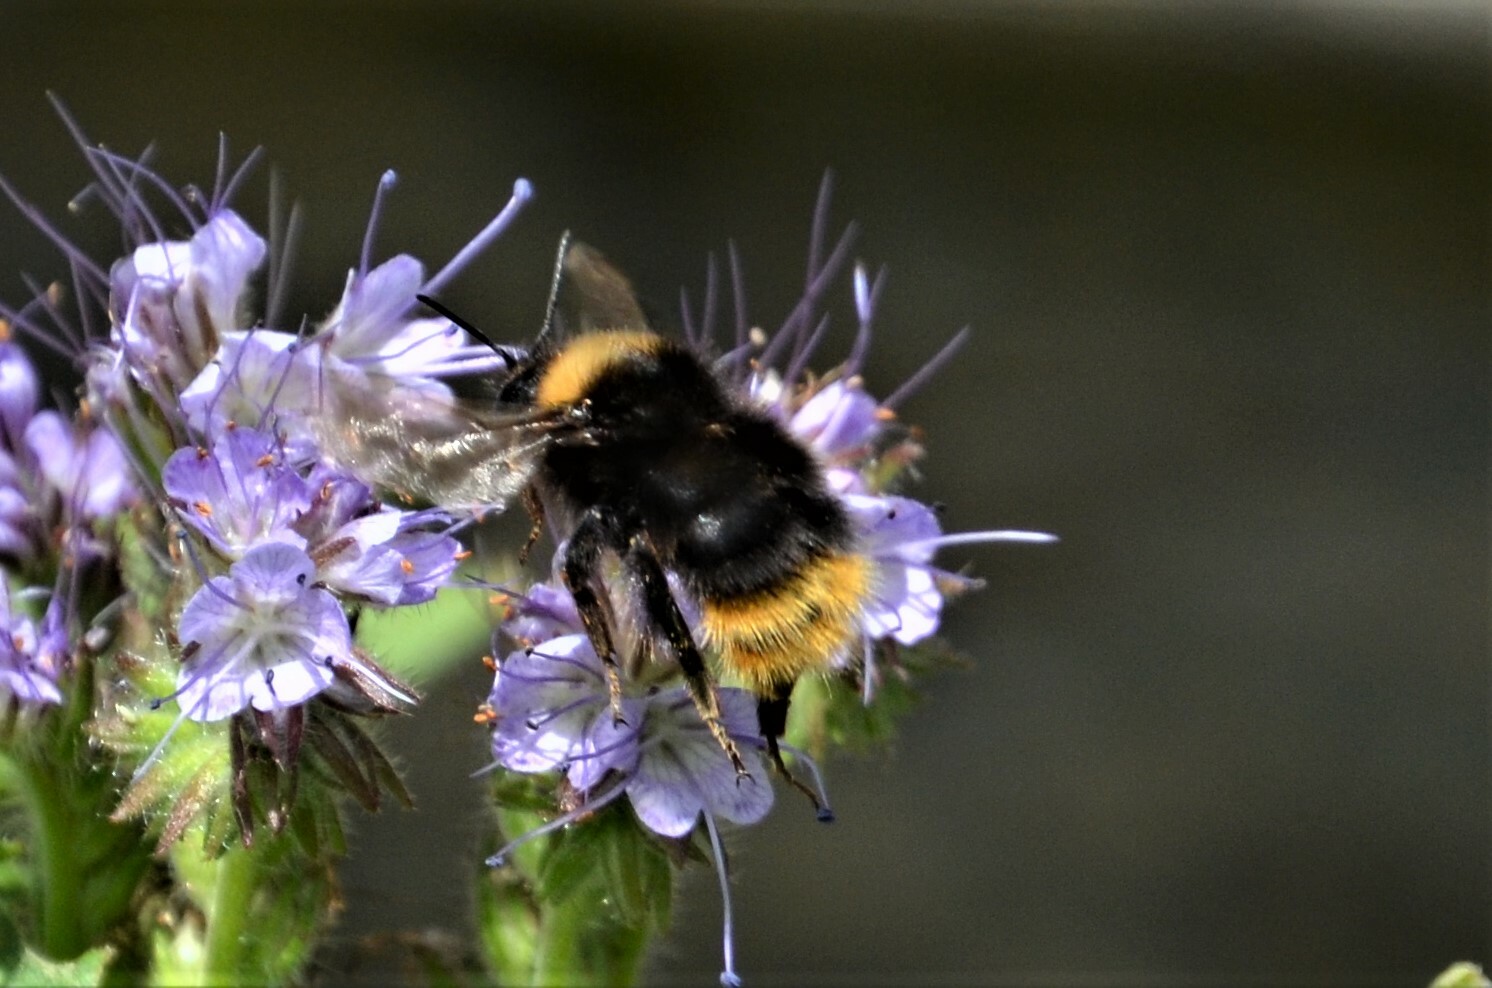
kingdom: Animalia
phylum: Arthropoda
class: Insecta
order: Hymenoptera
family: Apidae
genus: Bombus
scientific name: Bombus pratorum
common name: Early humble-bee
